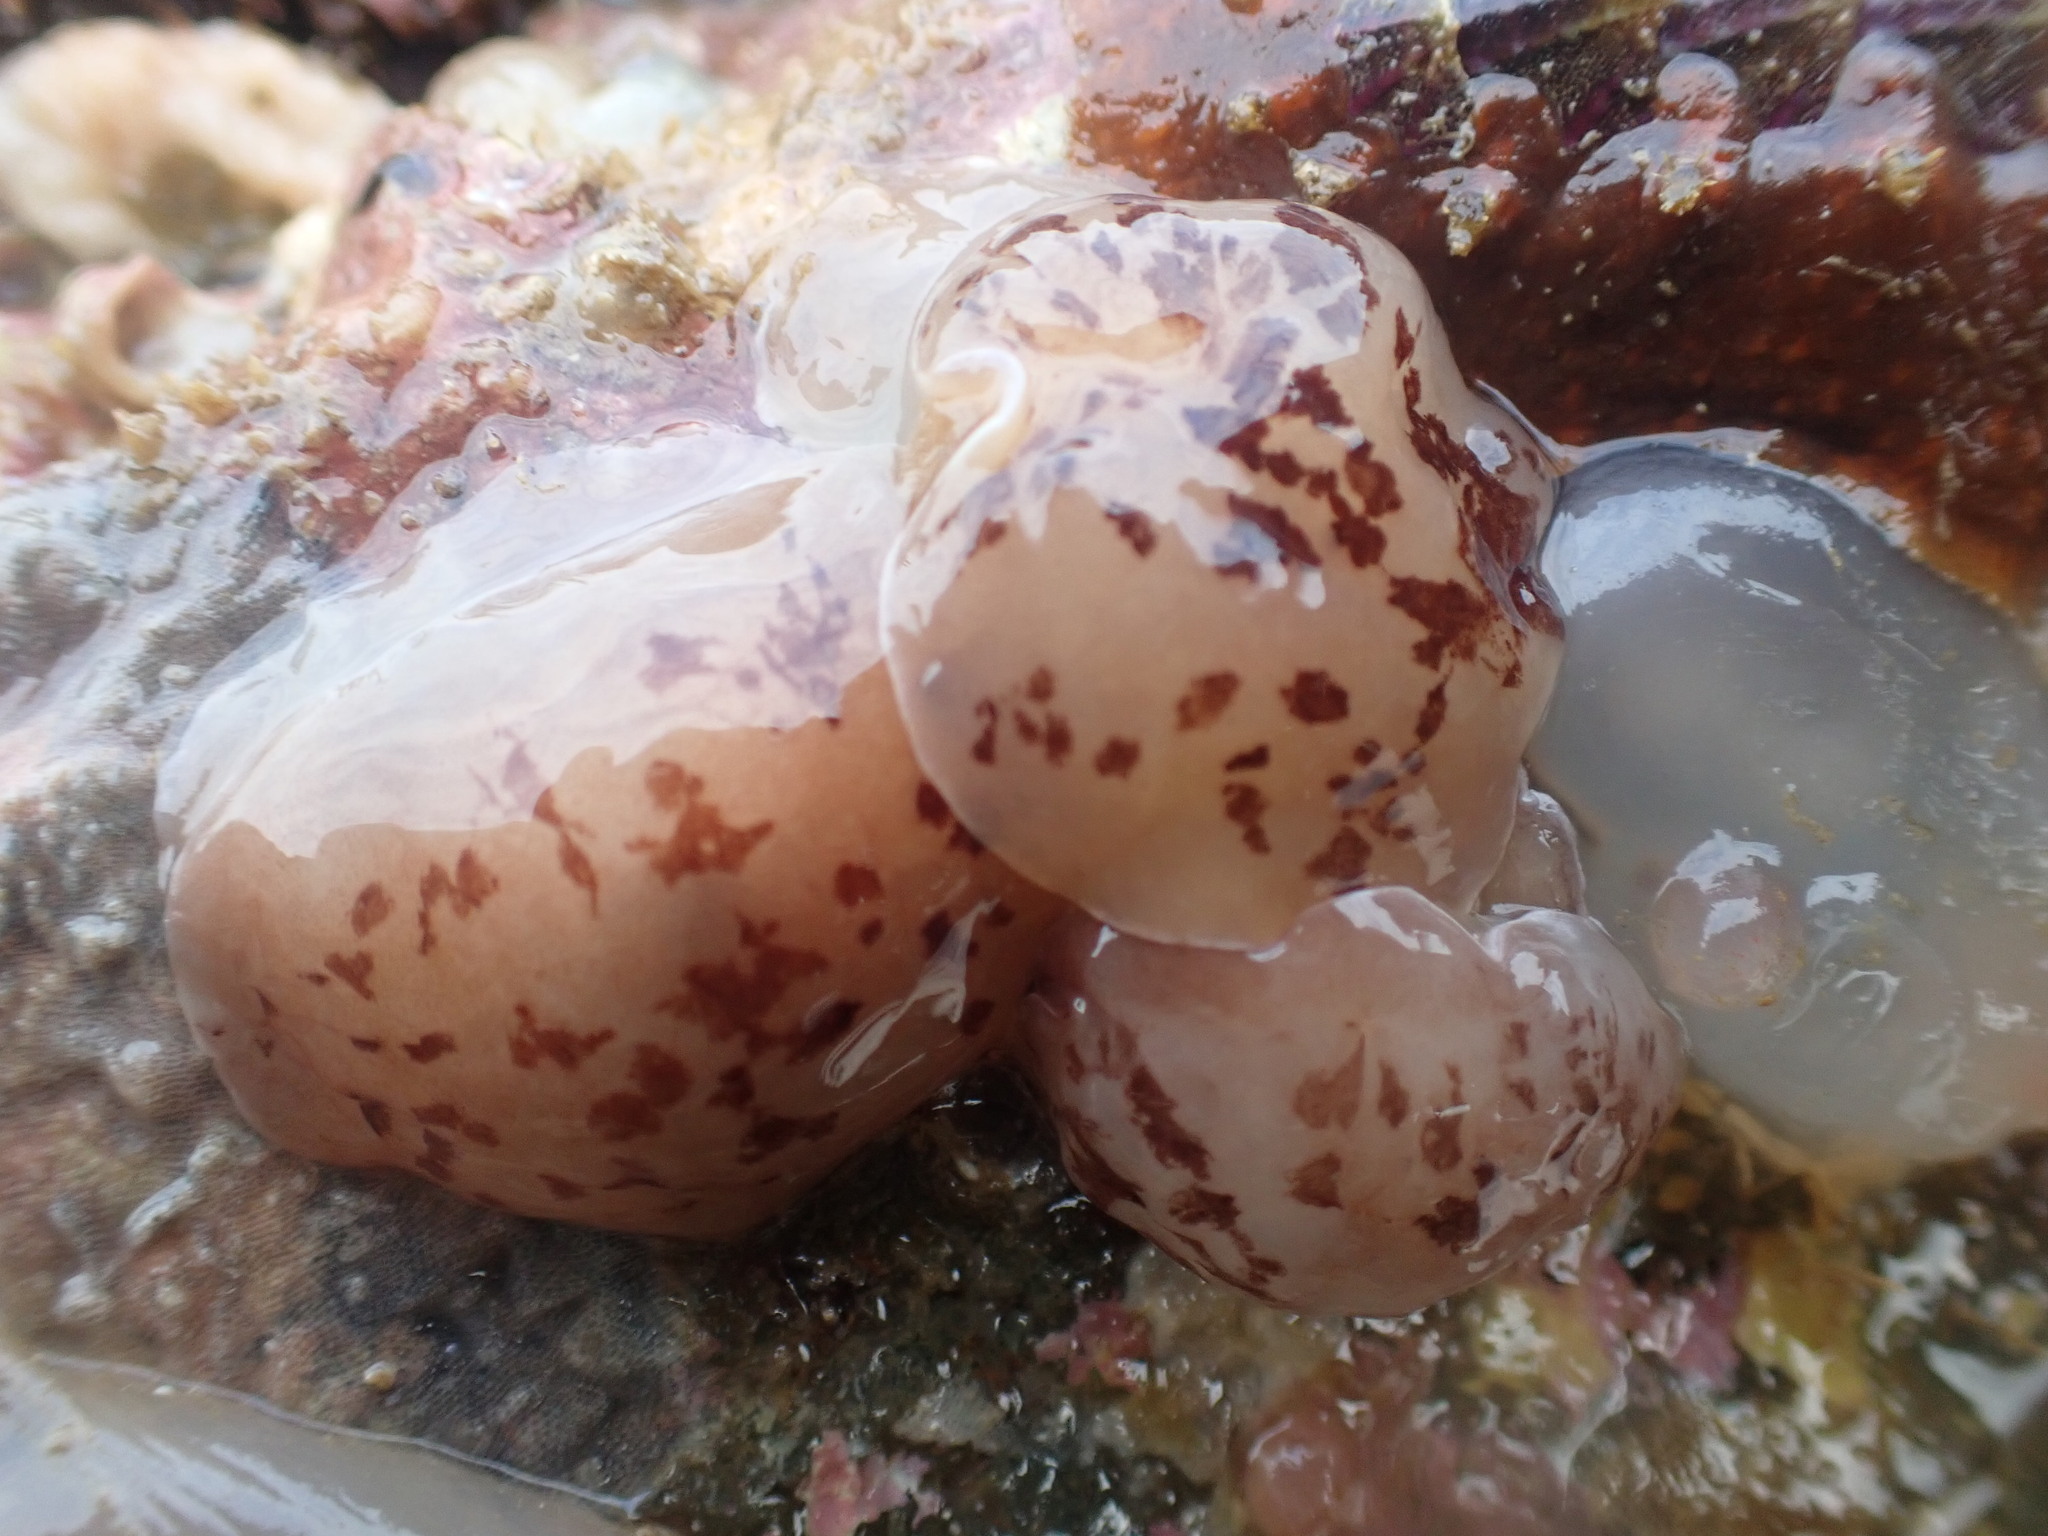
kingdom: Animalia
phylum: Mollusca
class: Gastropoda
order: Pleurobranchida
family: Pleurobranchidae
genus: Berthella
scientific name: Berthella ornata
